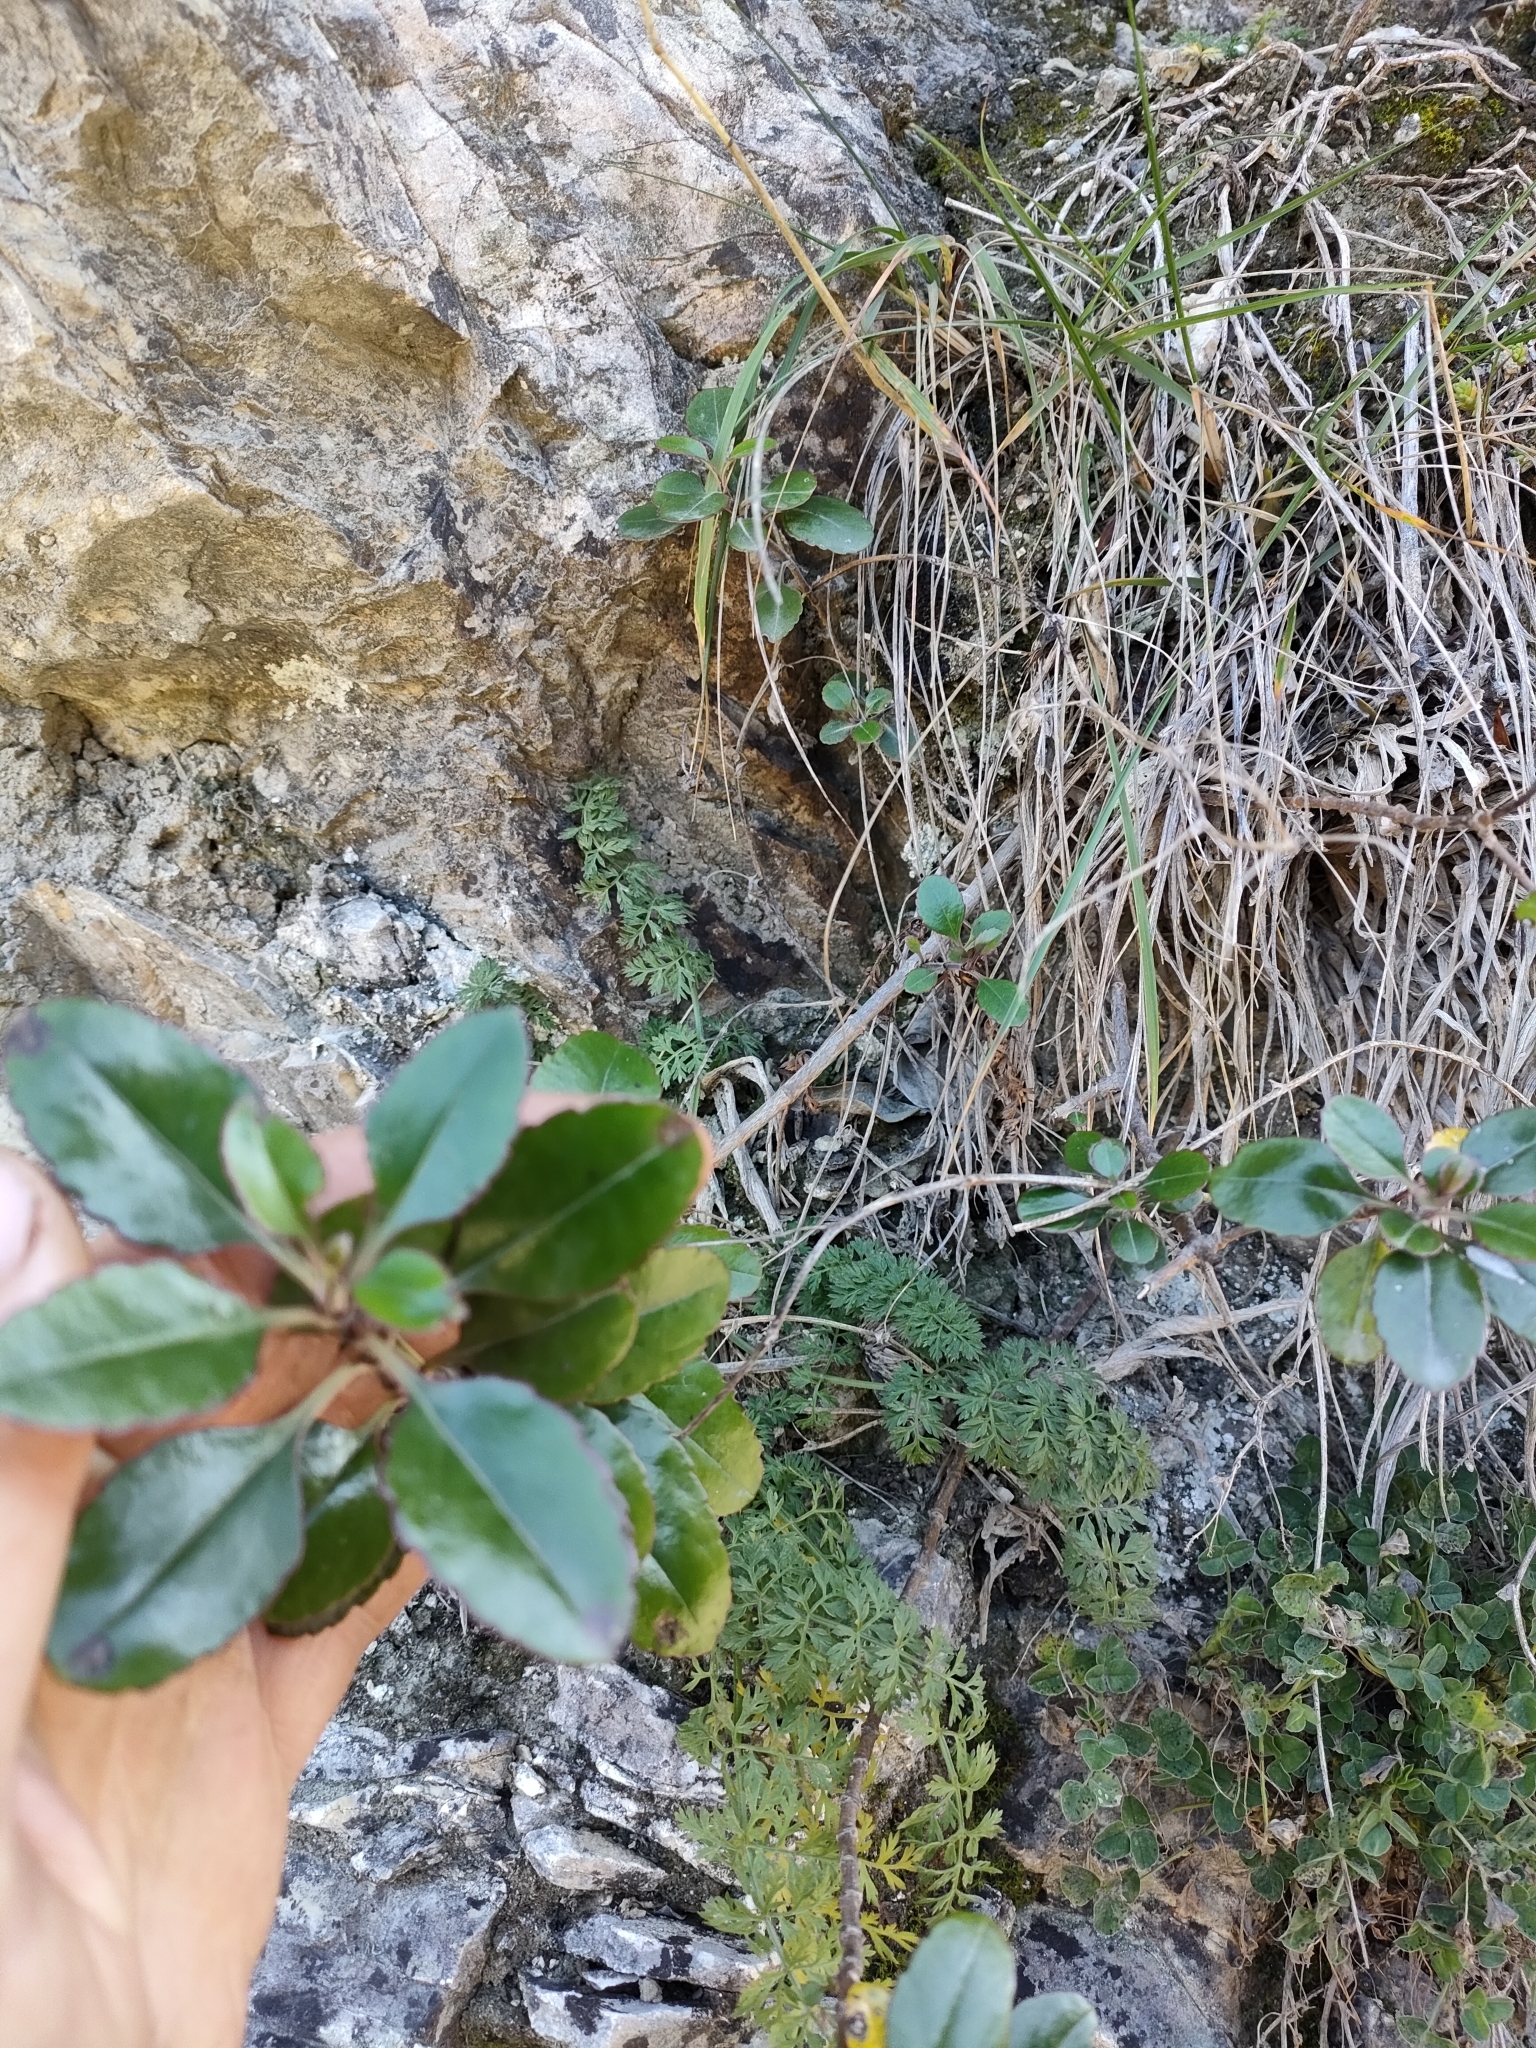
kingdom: Plantae
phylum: Tracheophyta
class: Magnoliopsida
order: Lamiales
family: Plantaginaceae
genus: Veronica
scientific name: Veronica hulkeana
